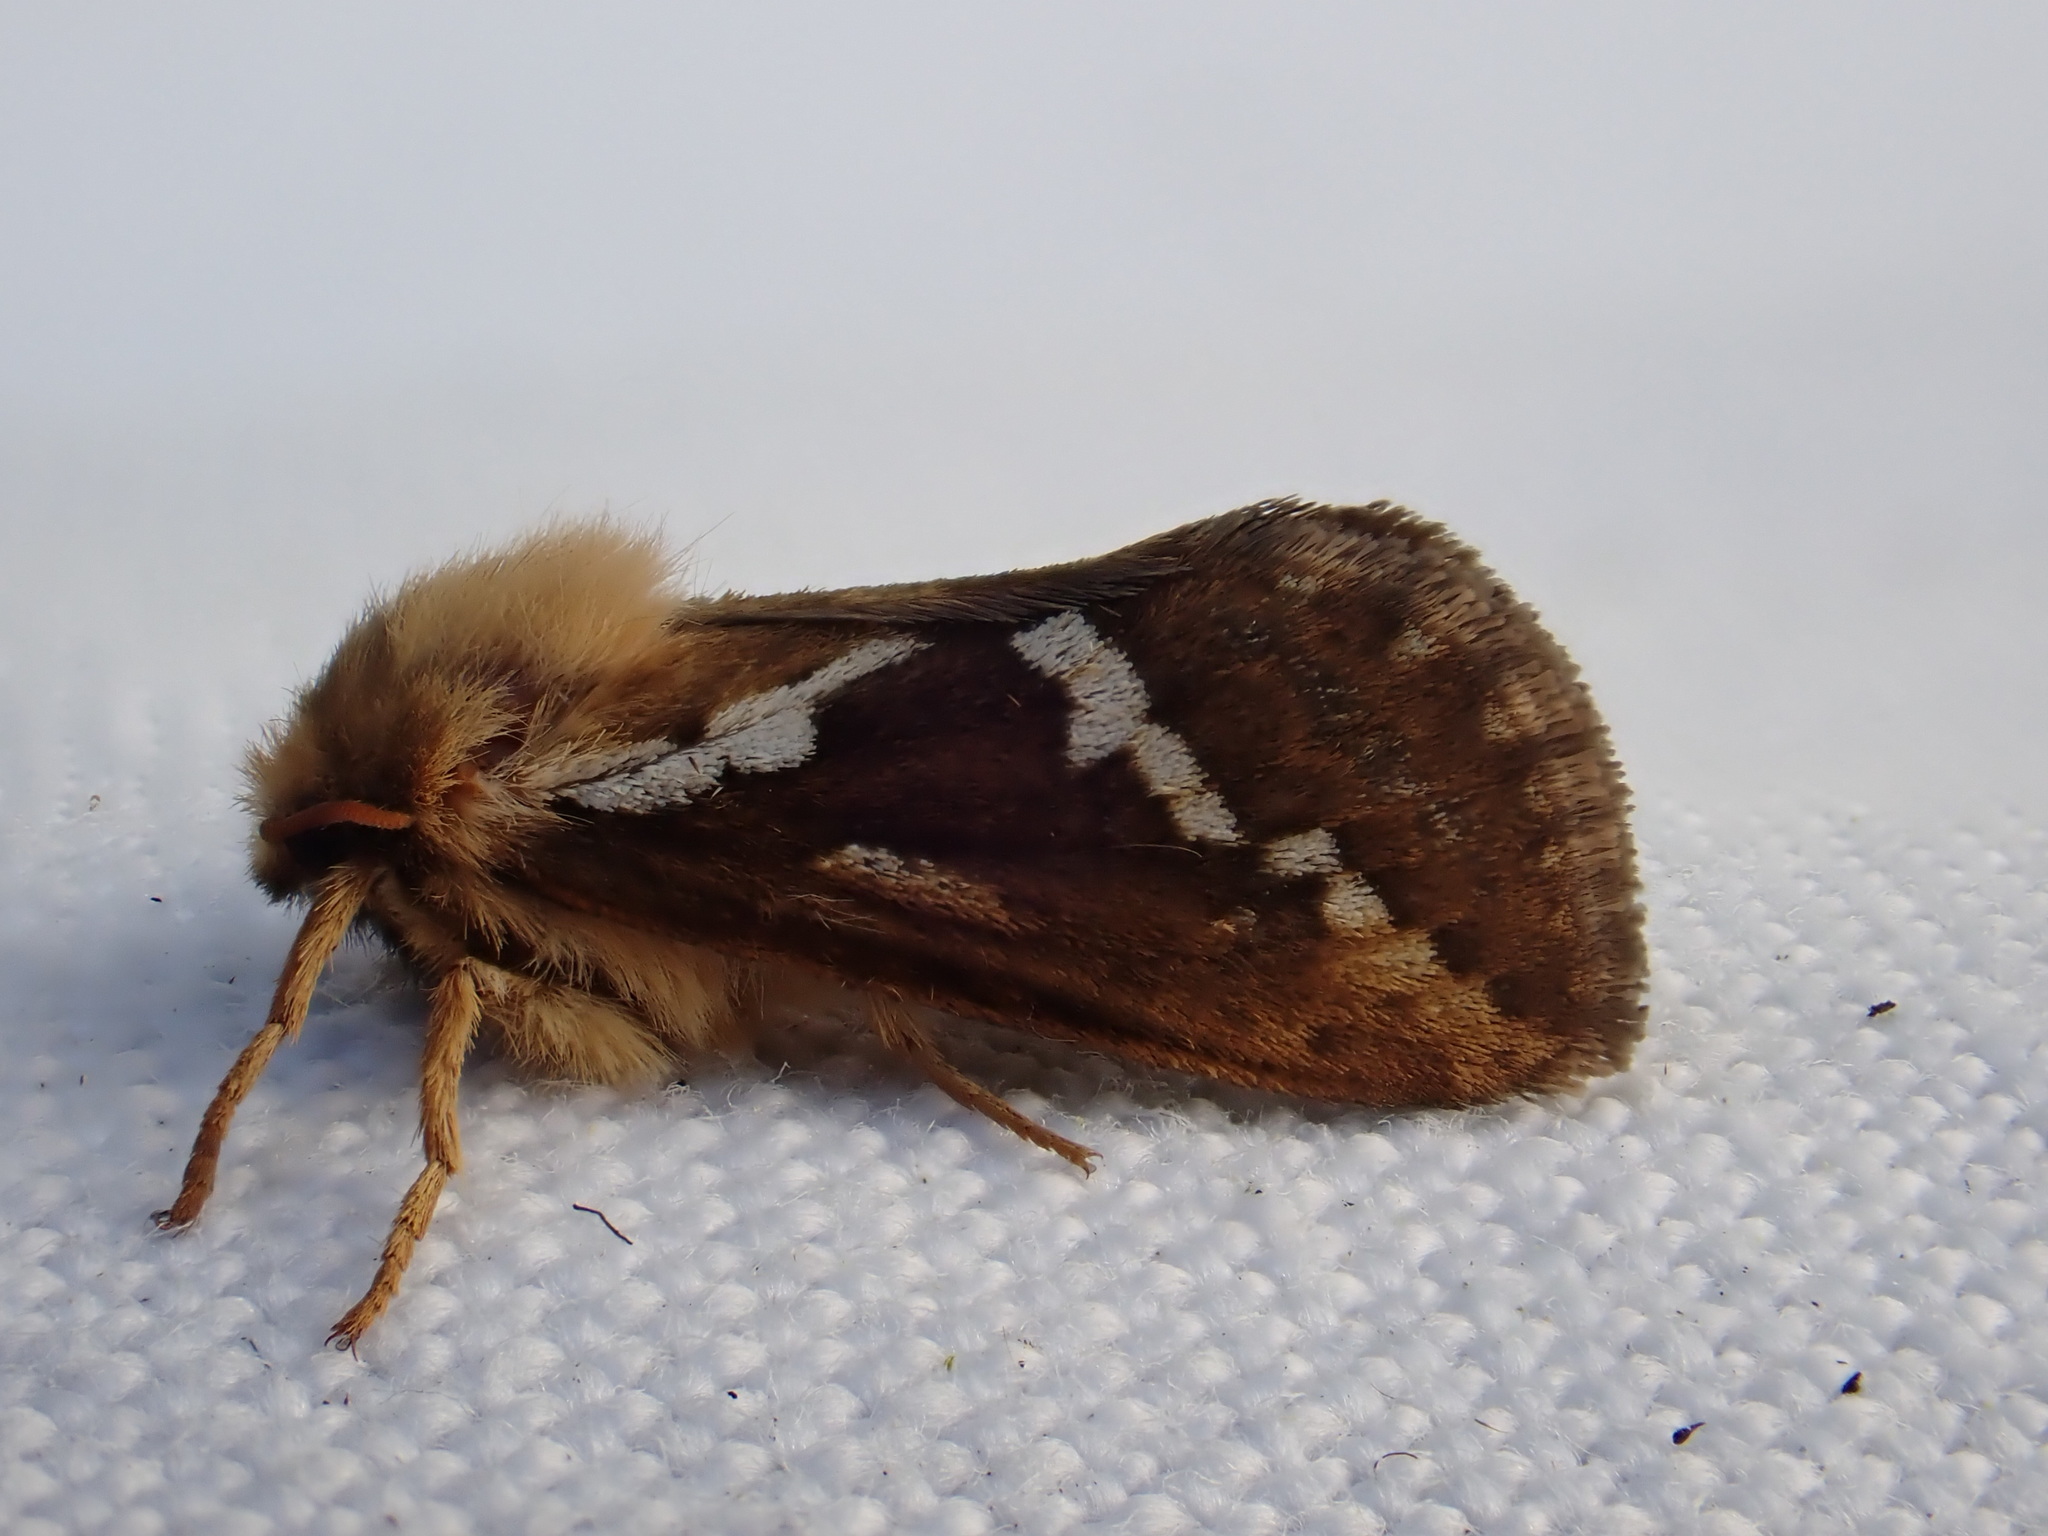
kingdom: Animalia
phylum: Arthropoda
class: Insecta
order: Lepidoptera
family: Hepialidae
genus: Korscheltellus
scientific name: Korscheltellus lupulina
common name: Common swift
